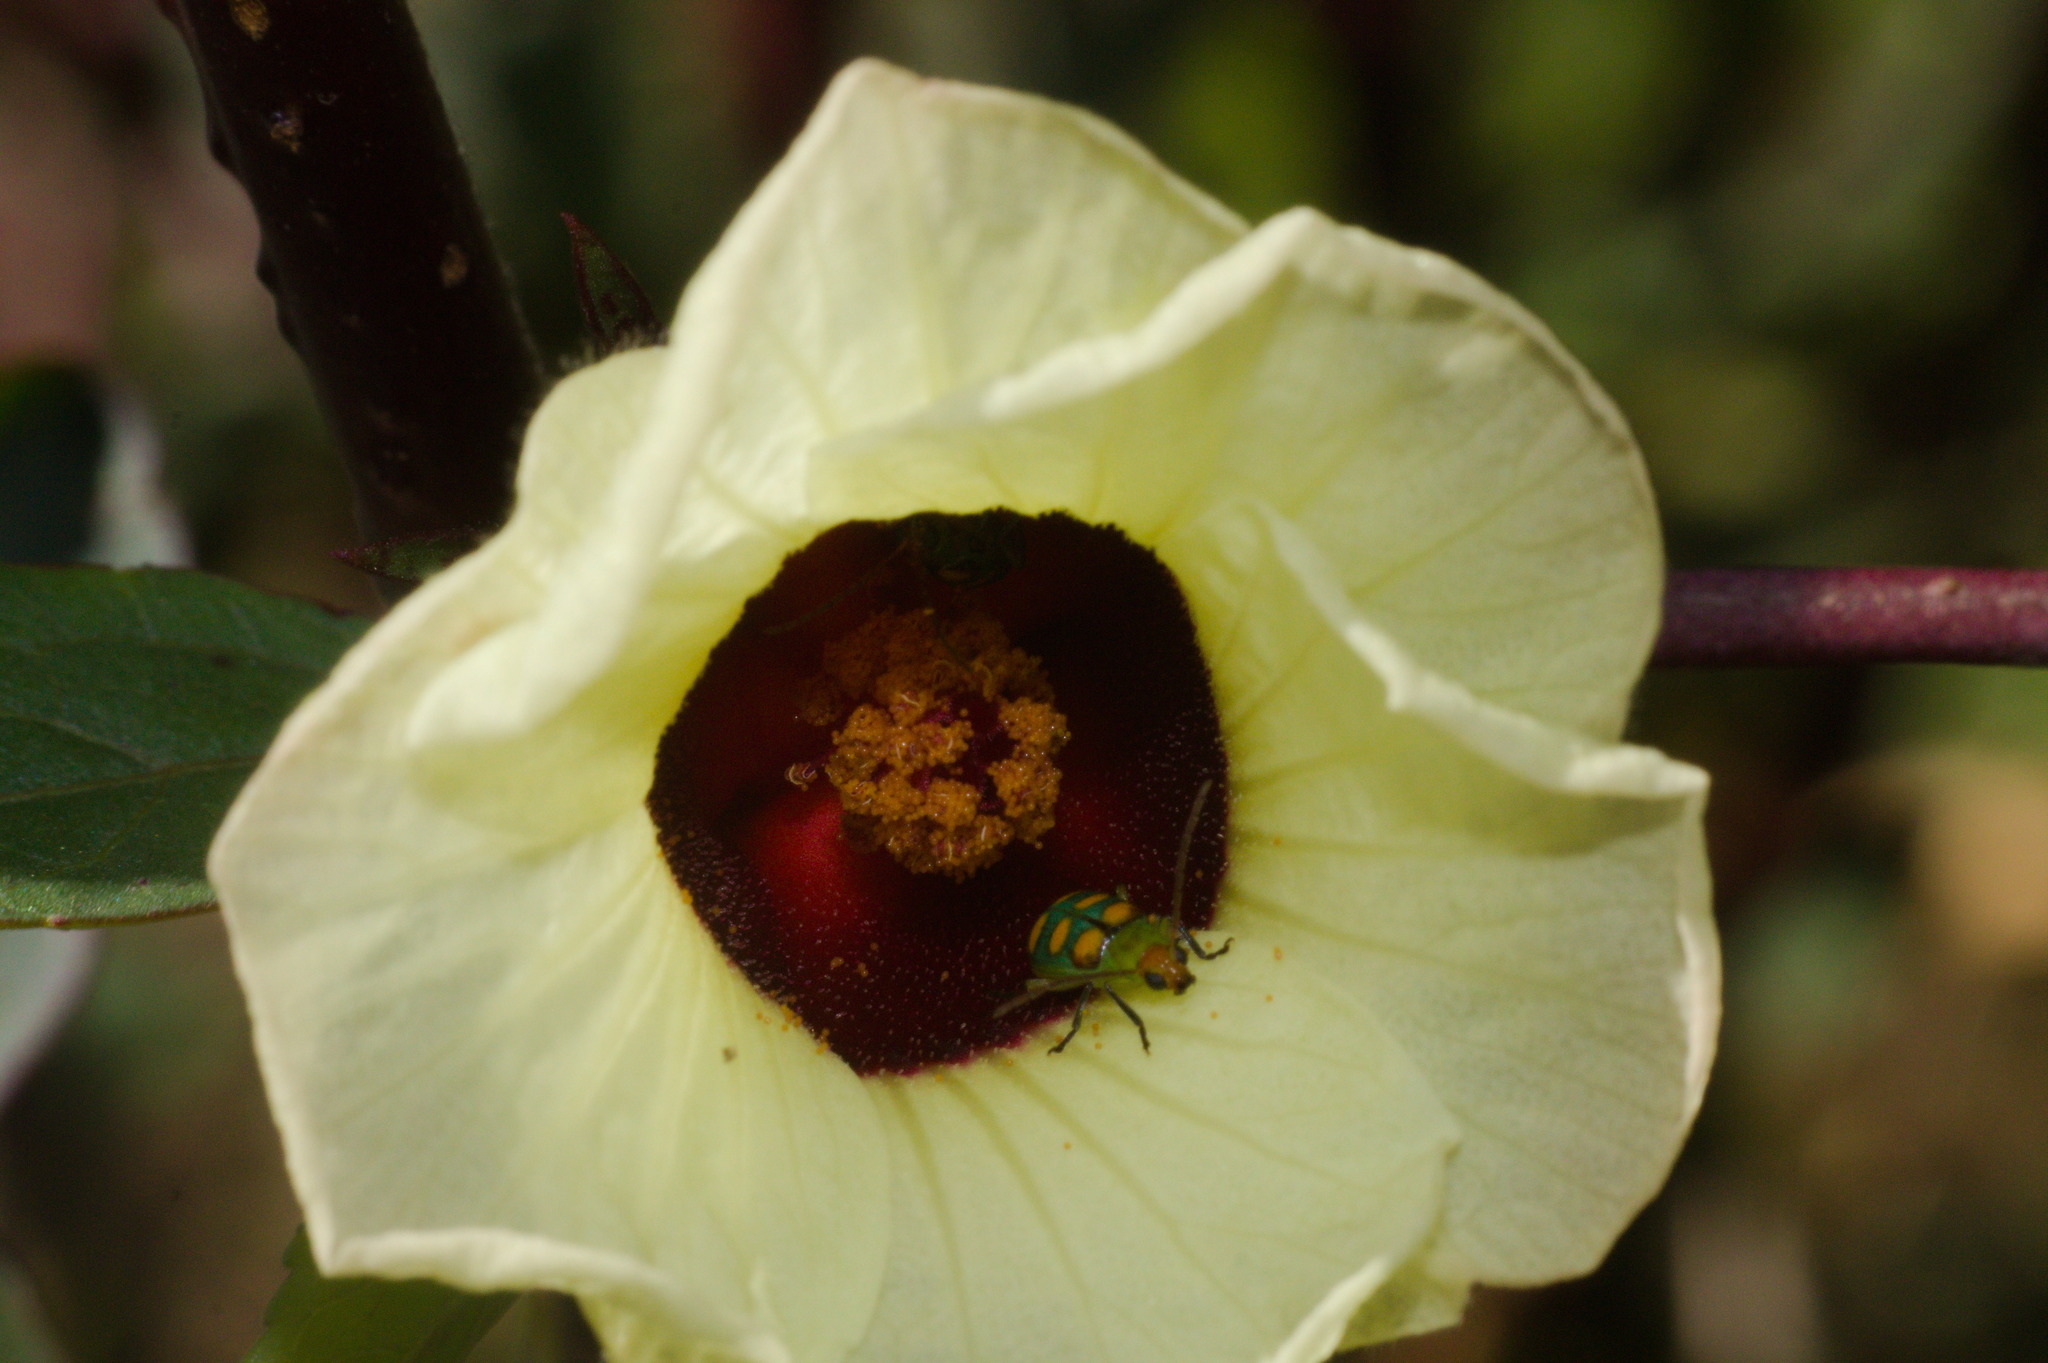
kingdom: Animalia
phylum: Arthropoda
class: Insecta
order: Coleoptera
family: Chrysomelidae
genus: Diabrotica
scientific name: Diabrotica speciosa
